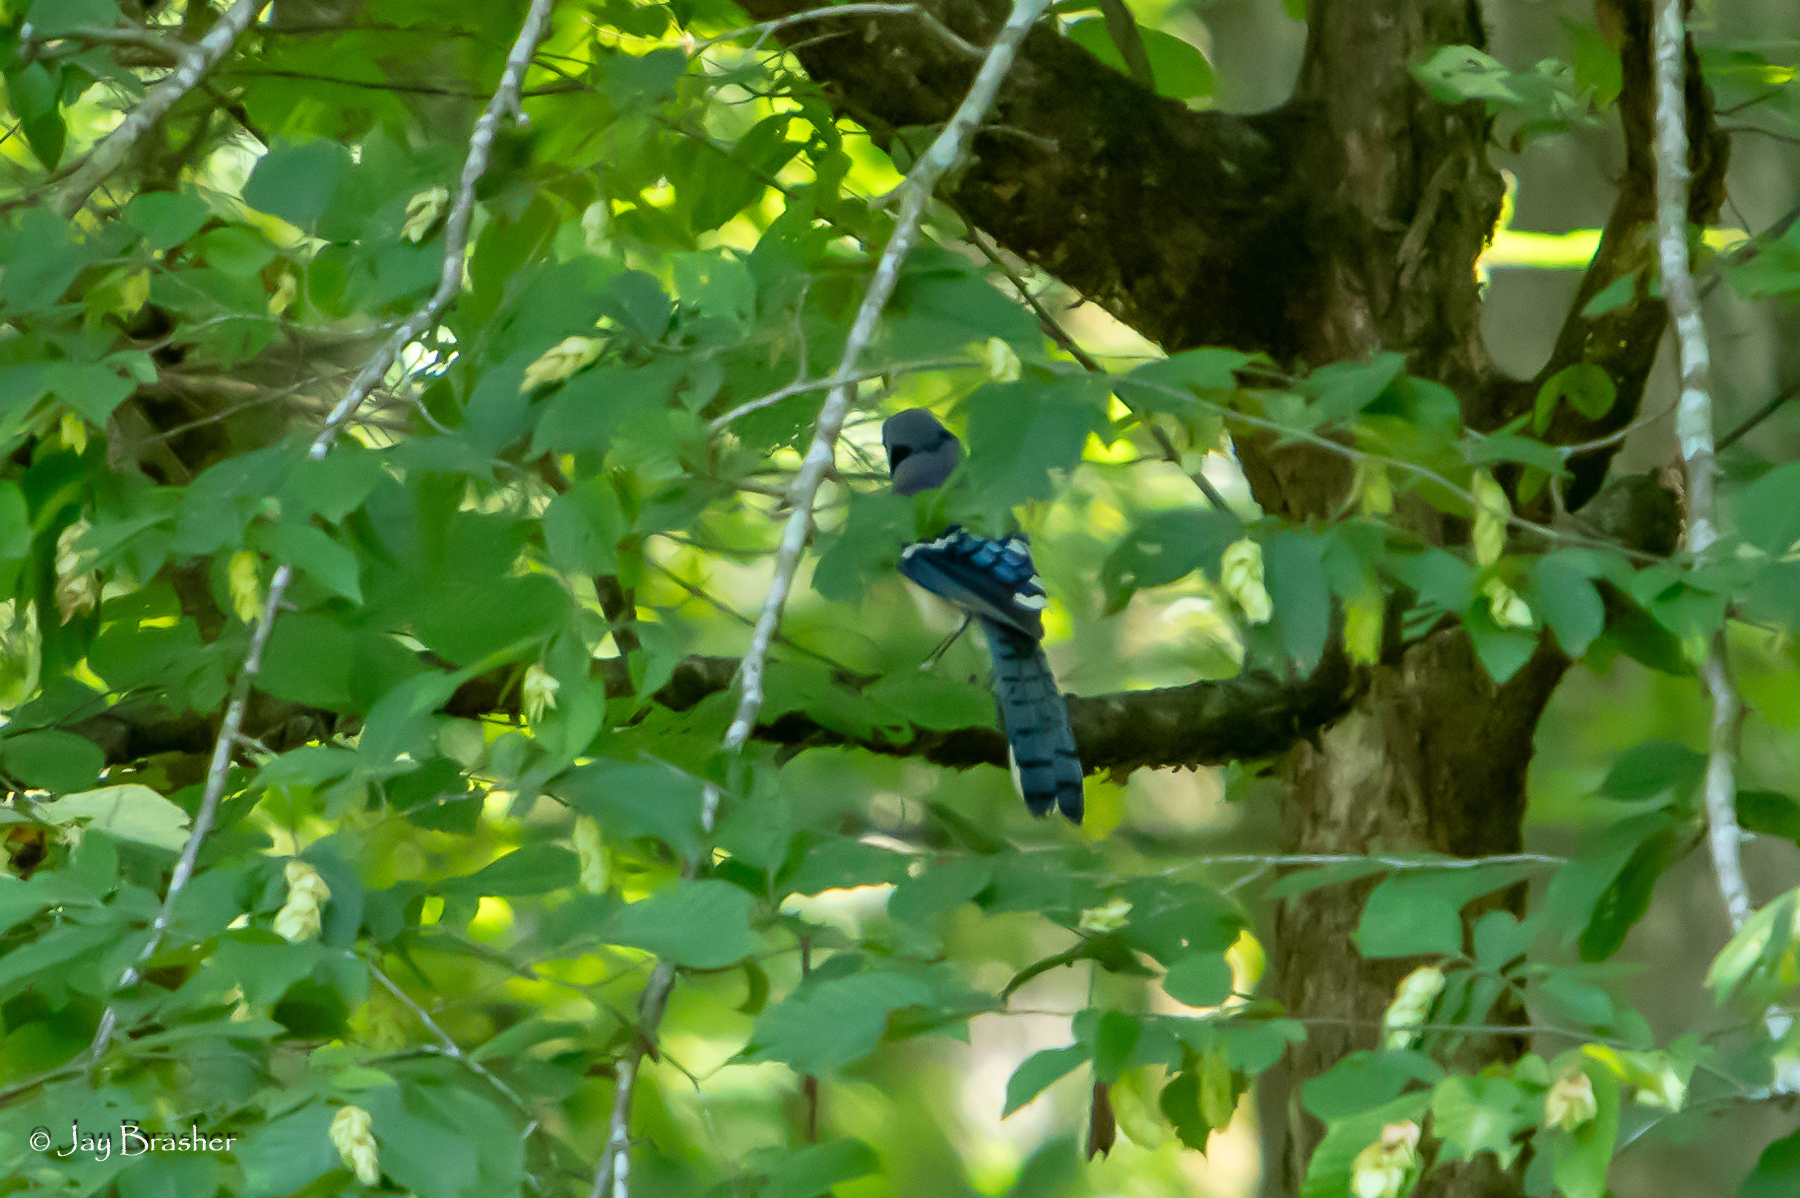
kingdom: Animalia
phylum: Chordata
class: Aves
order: Passeriformes
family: Corvidae
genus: Cyanocitta
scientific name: Cyanocitta cristata
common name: Blue jay
